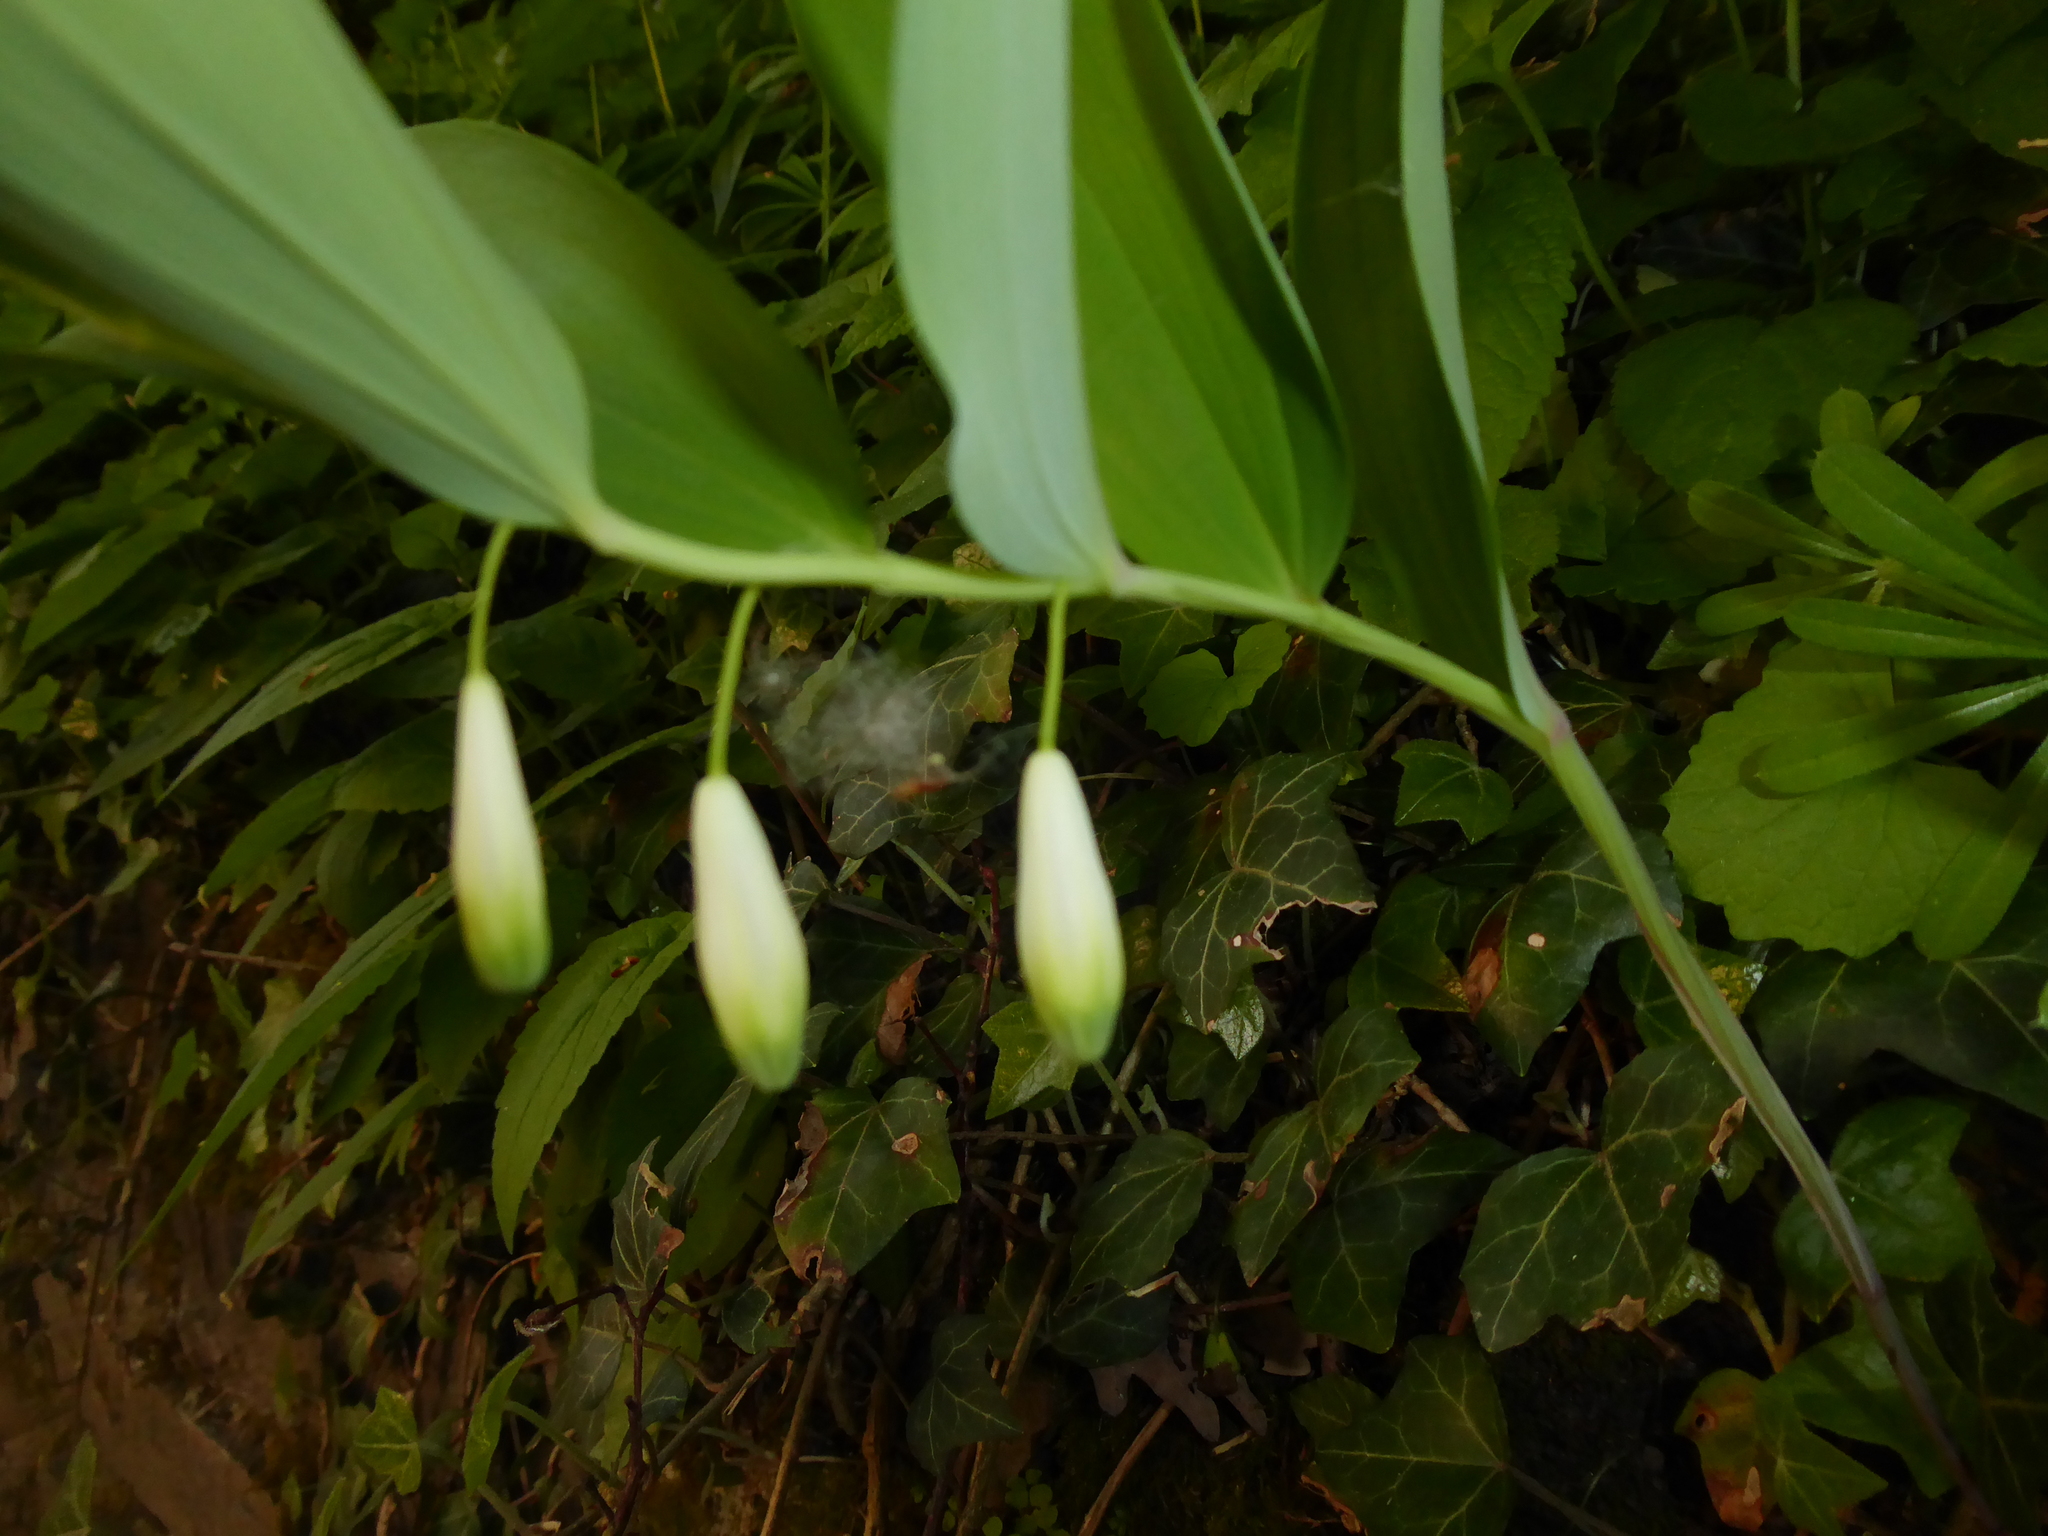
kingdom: Plantae
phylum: Tracheophyta
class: Liliopsida
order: Asparagales
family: Asparagaceae
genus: Polygonatum
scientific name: Polygonatum odoratum
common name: Angular solomon's-seal
